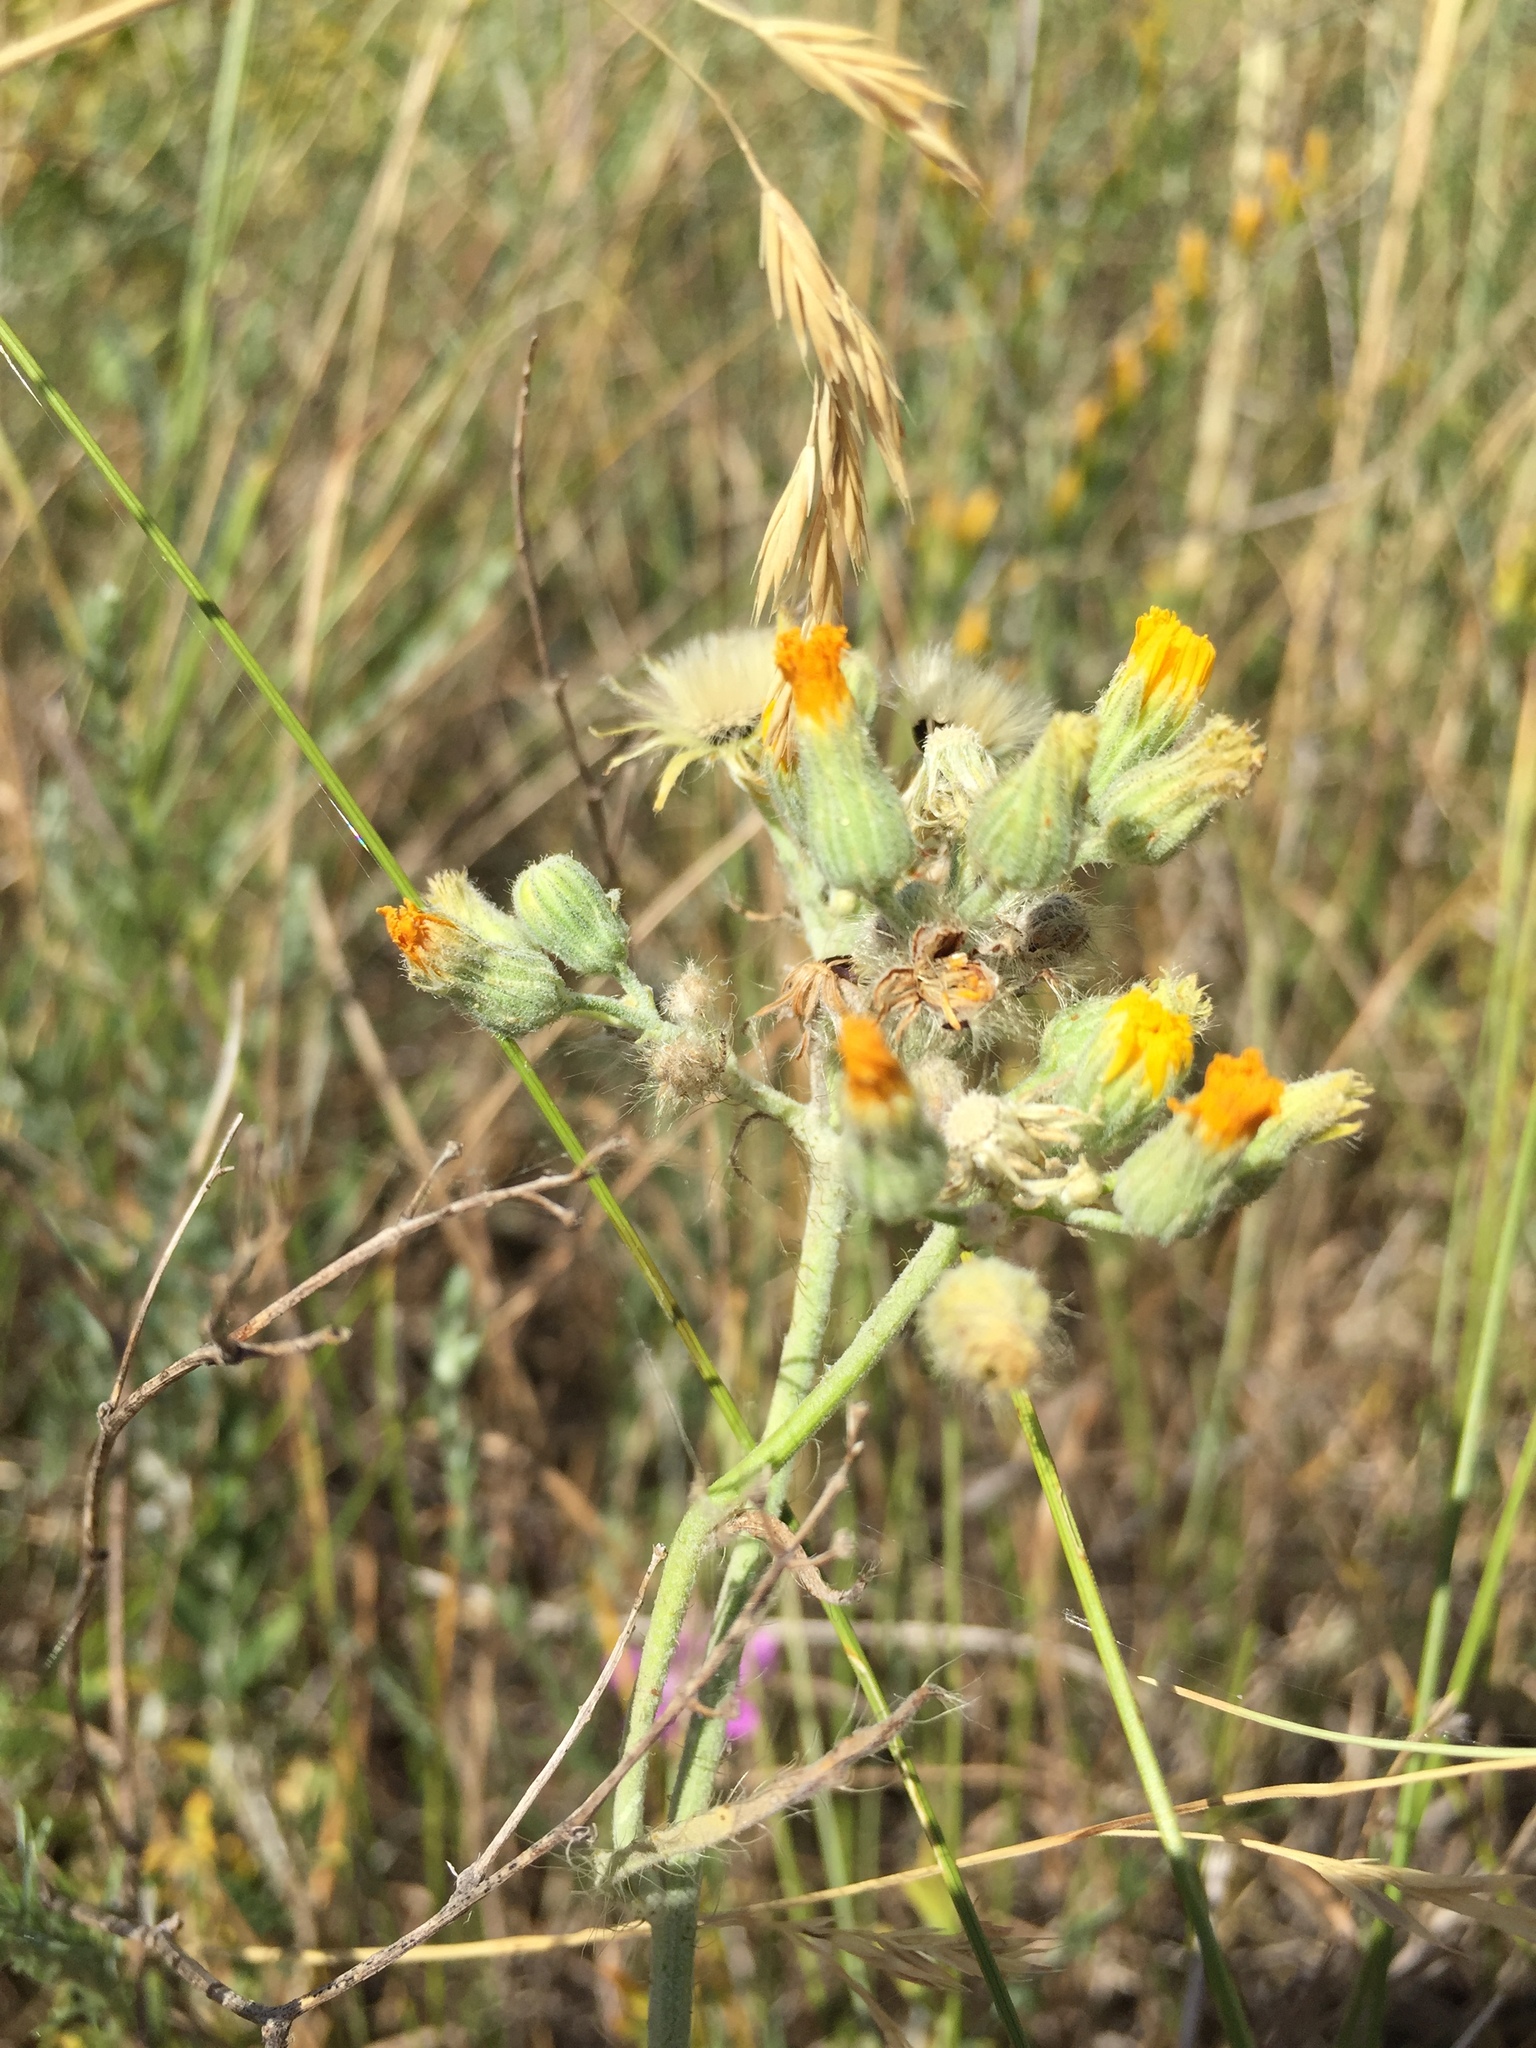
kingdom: Plantae
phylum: Tracheophyta
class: Magnoliopsida
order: Asterales
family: Asteraceae
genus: Pilosella
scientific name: Pilosella echioides
